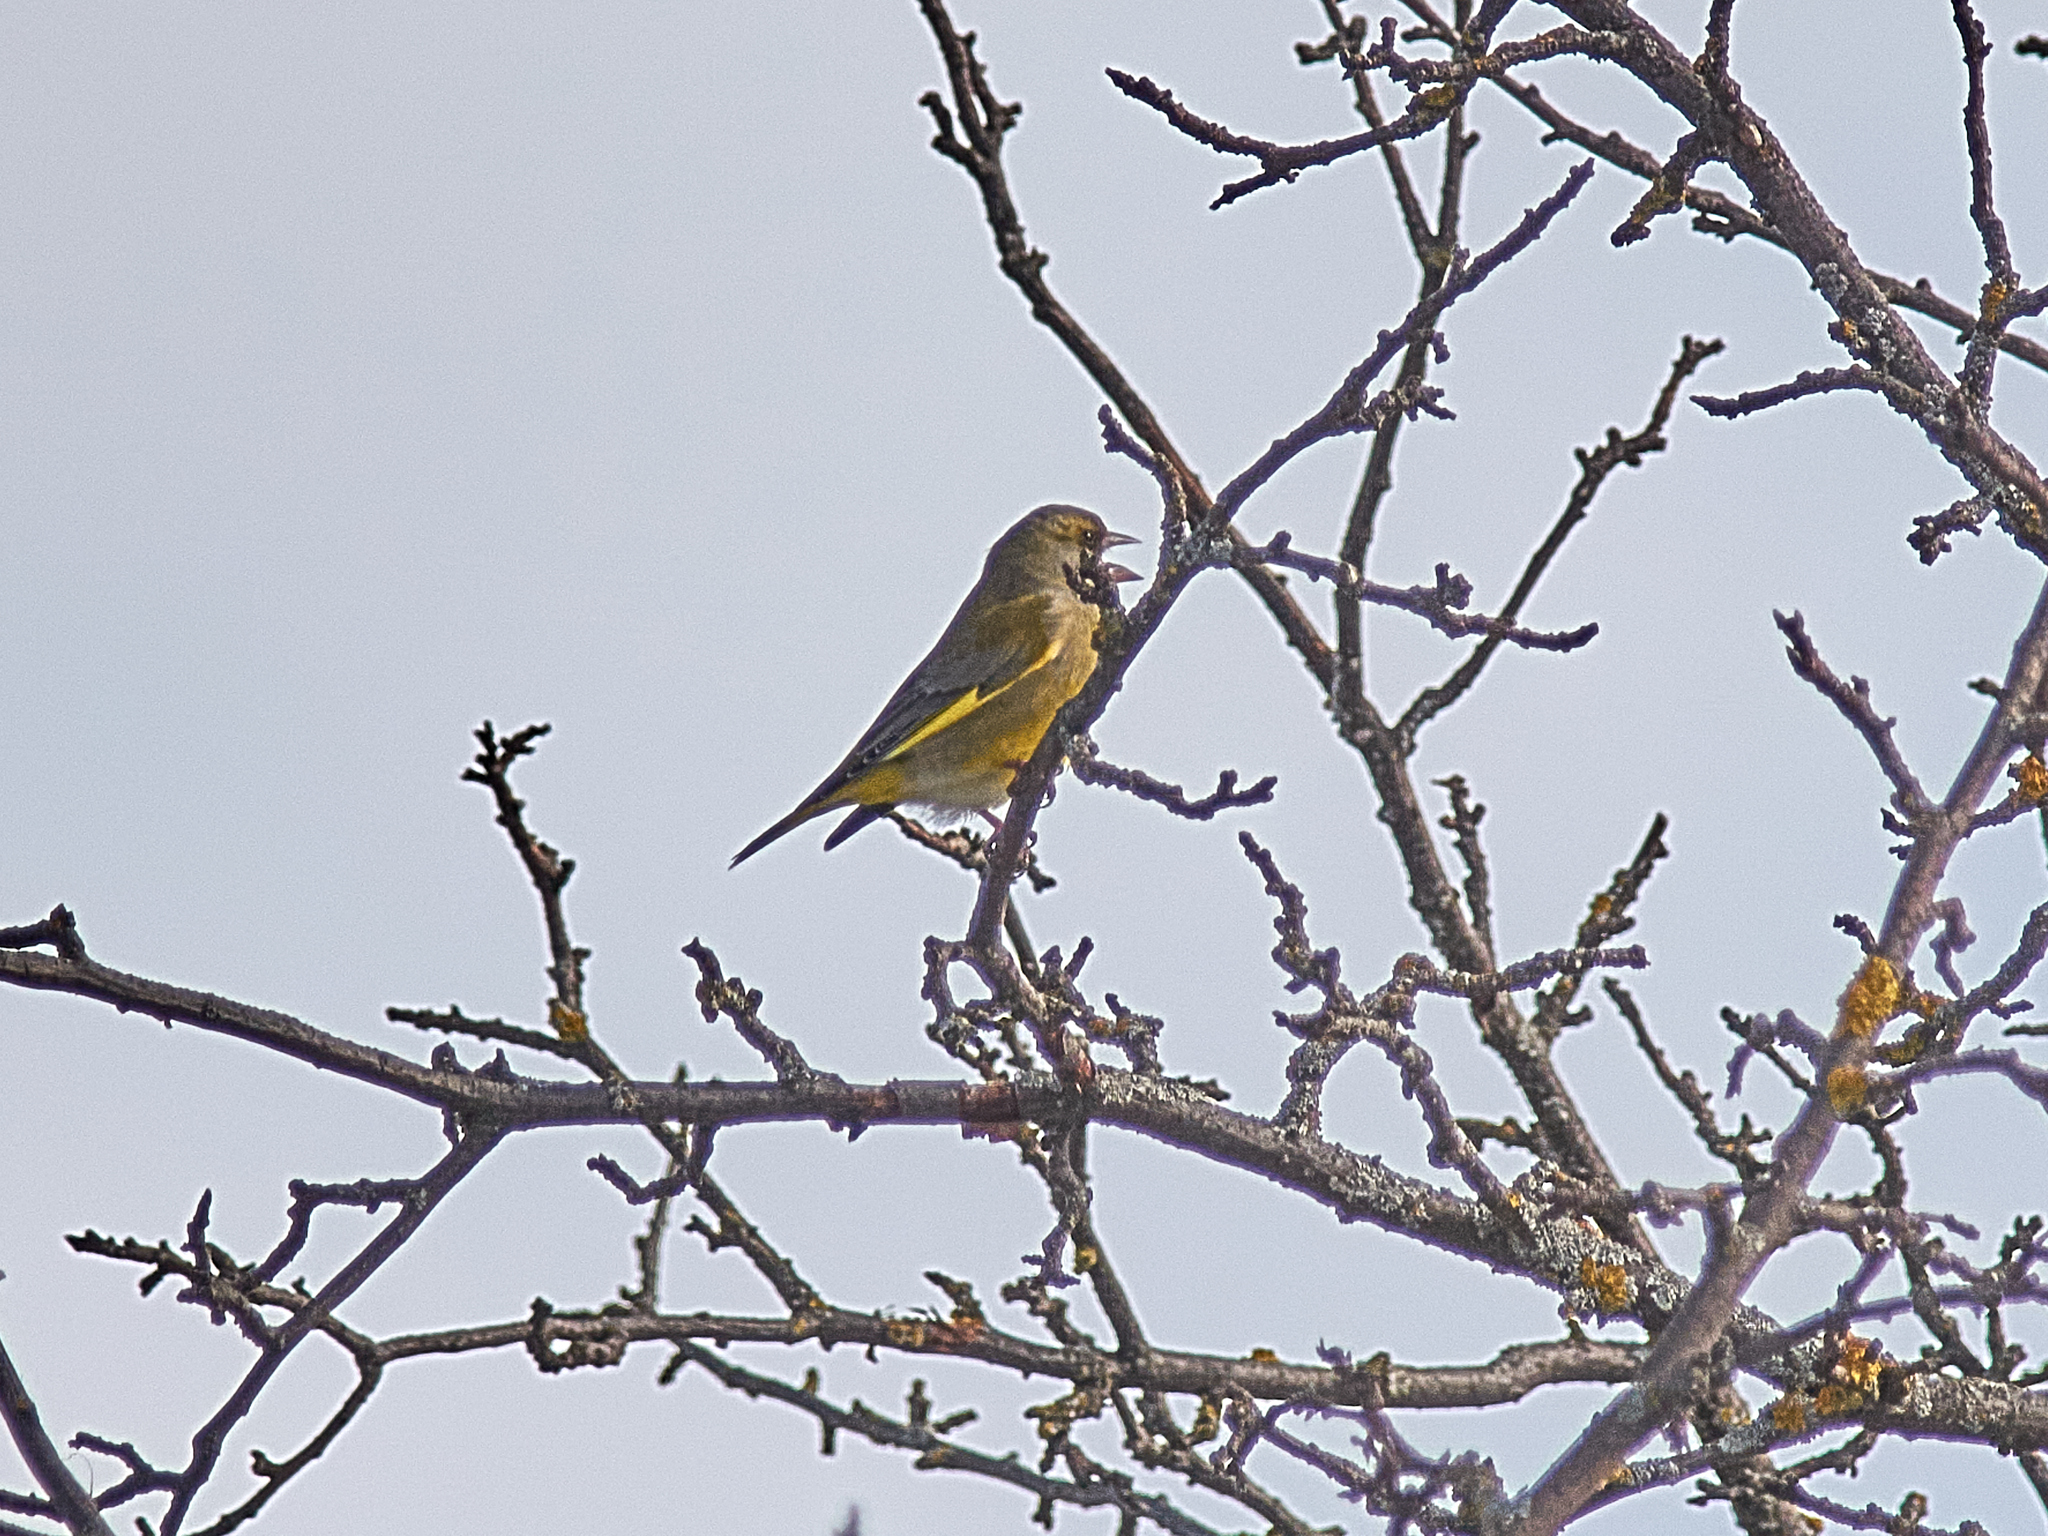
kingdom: Plantae
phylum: Tracheophyta
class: Liliopsida
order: Poales
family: Poaceae
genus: Chloris
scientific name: Chloris chloris
